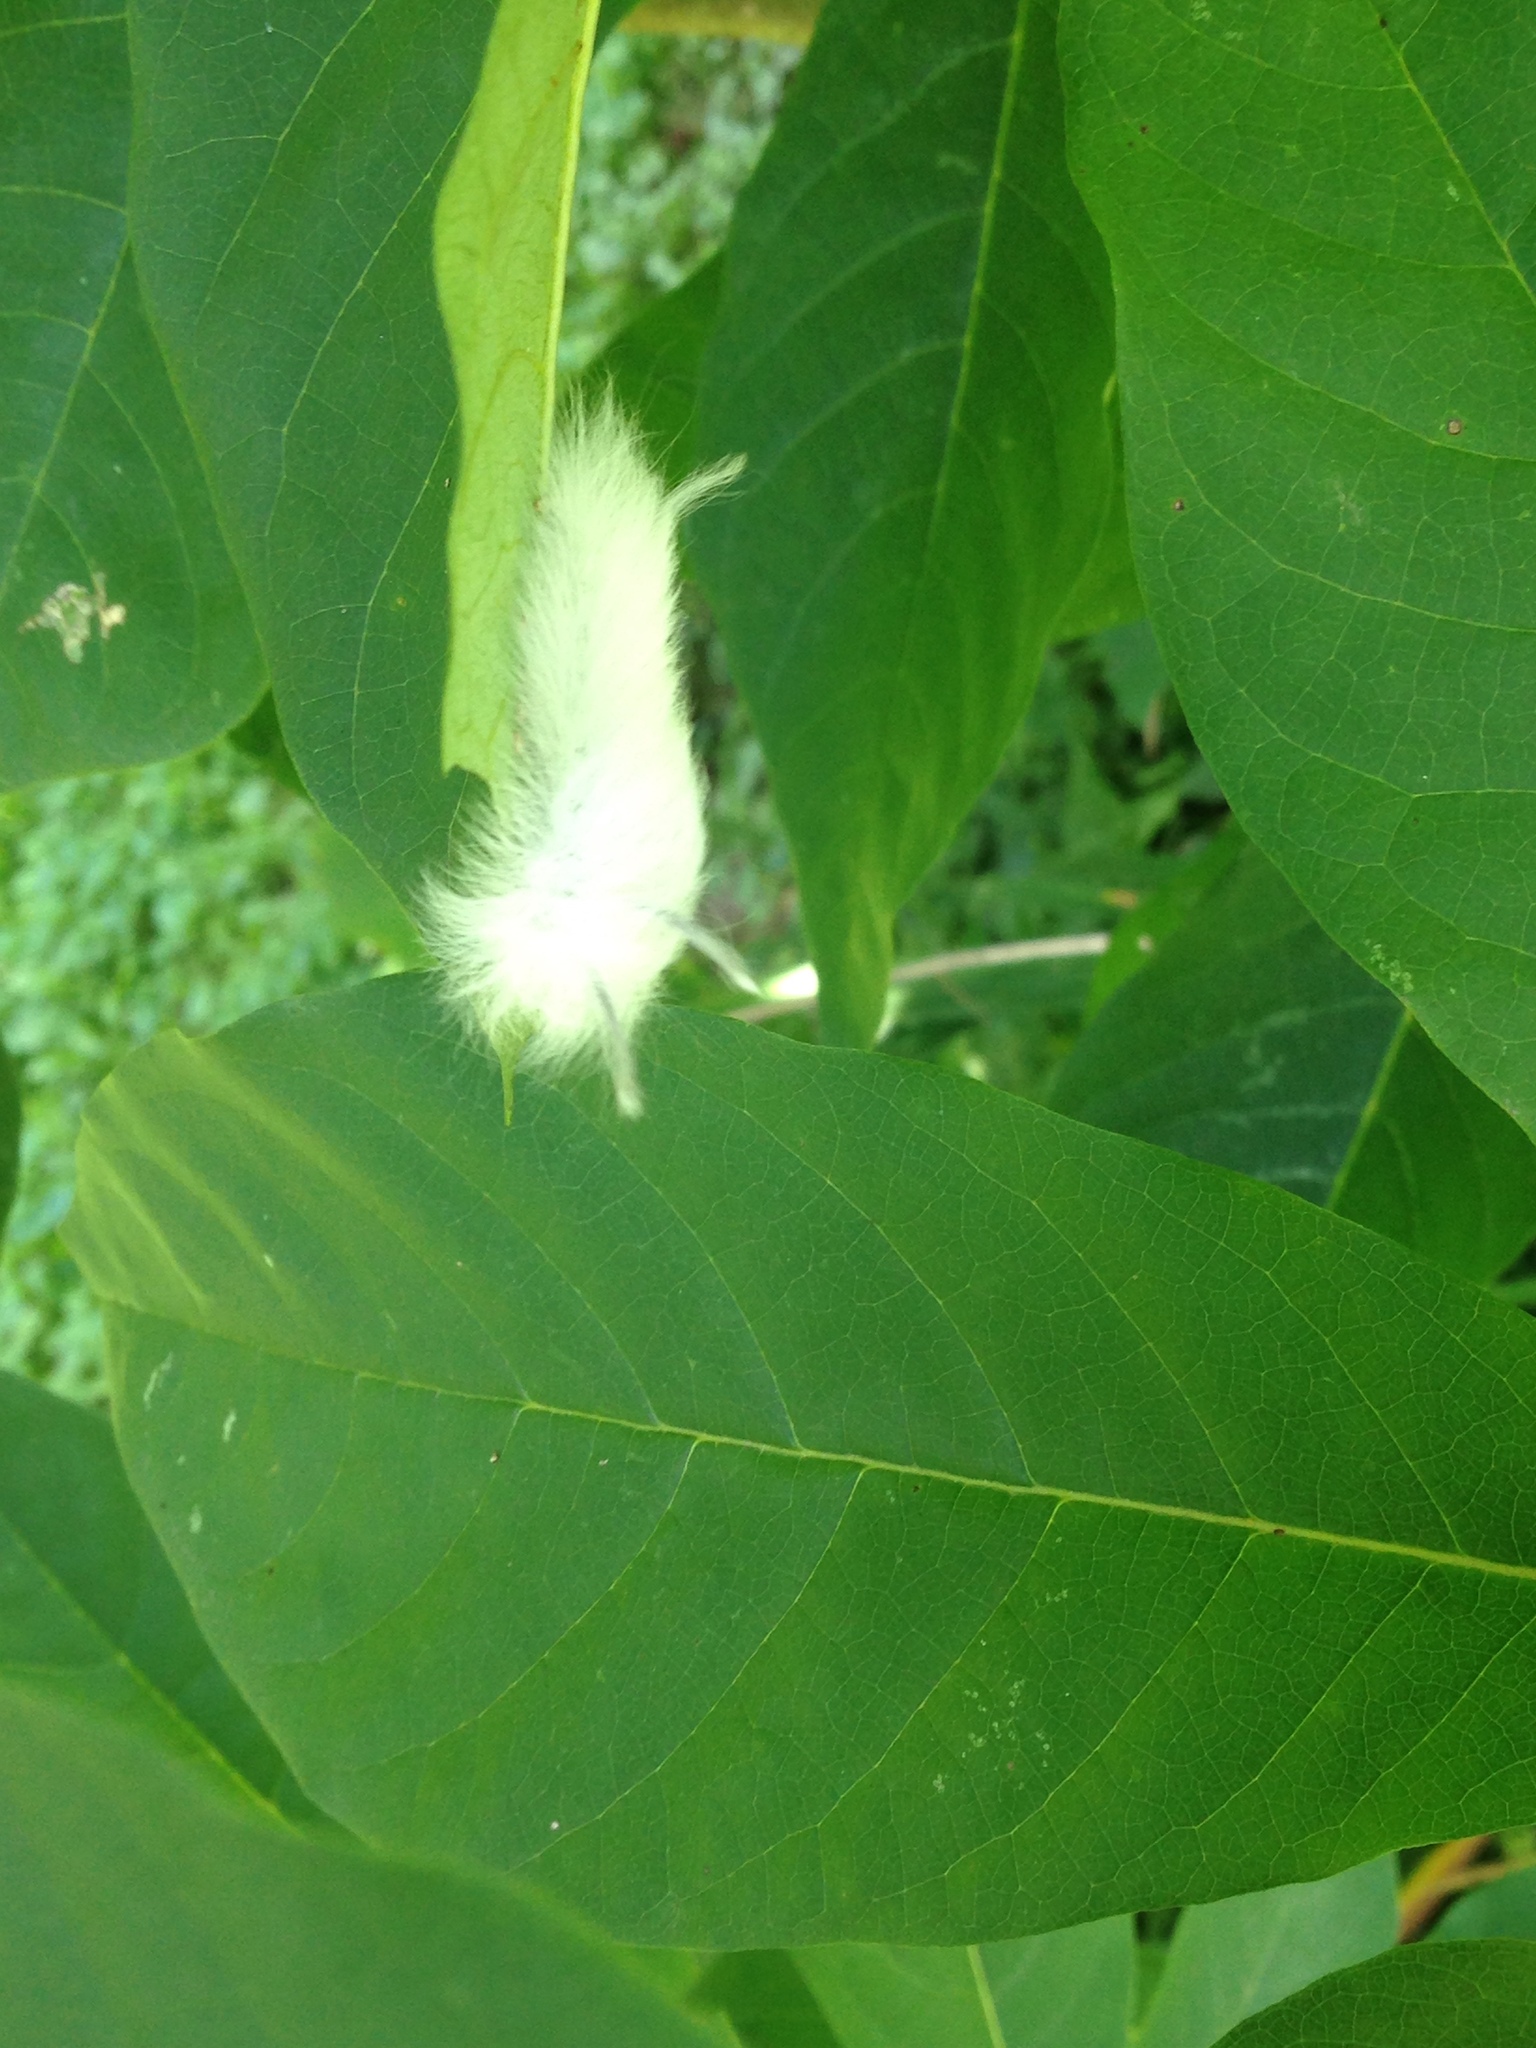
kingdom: Animalia
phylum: Arthropoda
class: Insecta
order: Lepidoptera
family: Apatelodidae
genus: Hygrochroa
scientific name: Hygrochroa Apatelodes torrefacta
